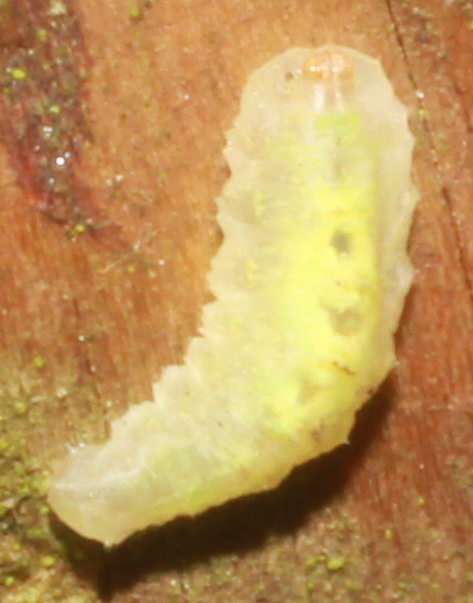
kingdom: Animalia
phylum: Arthropoda
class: Insecta
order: Diptera
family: Syrphidae
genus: Epistrophe
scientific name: Epistrophe grossulariae
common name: Black-horned smoothtail
